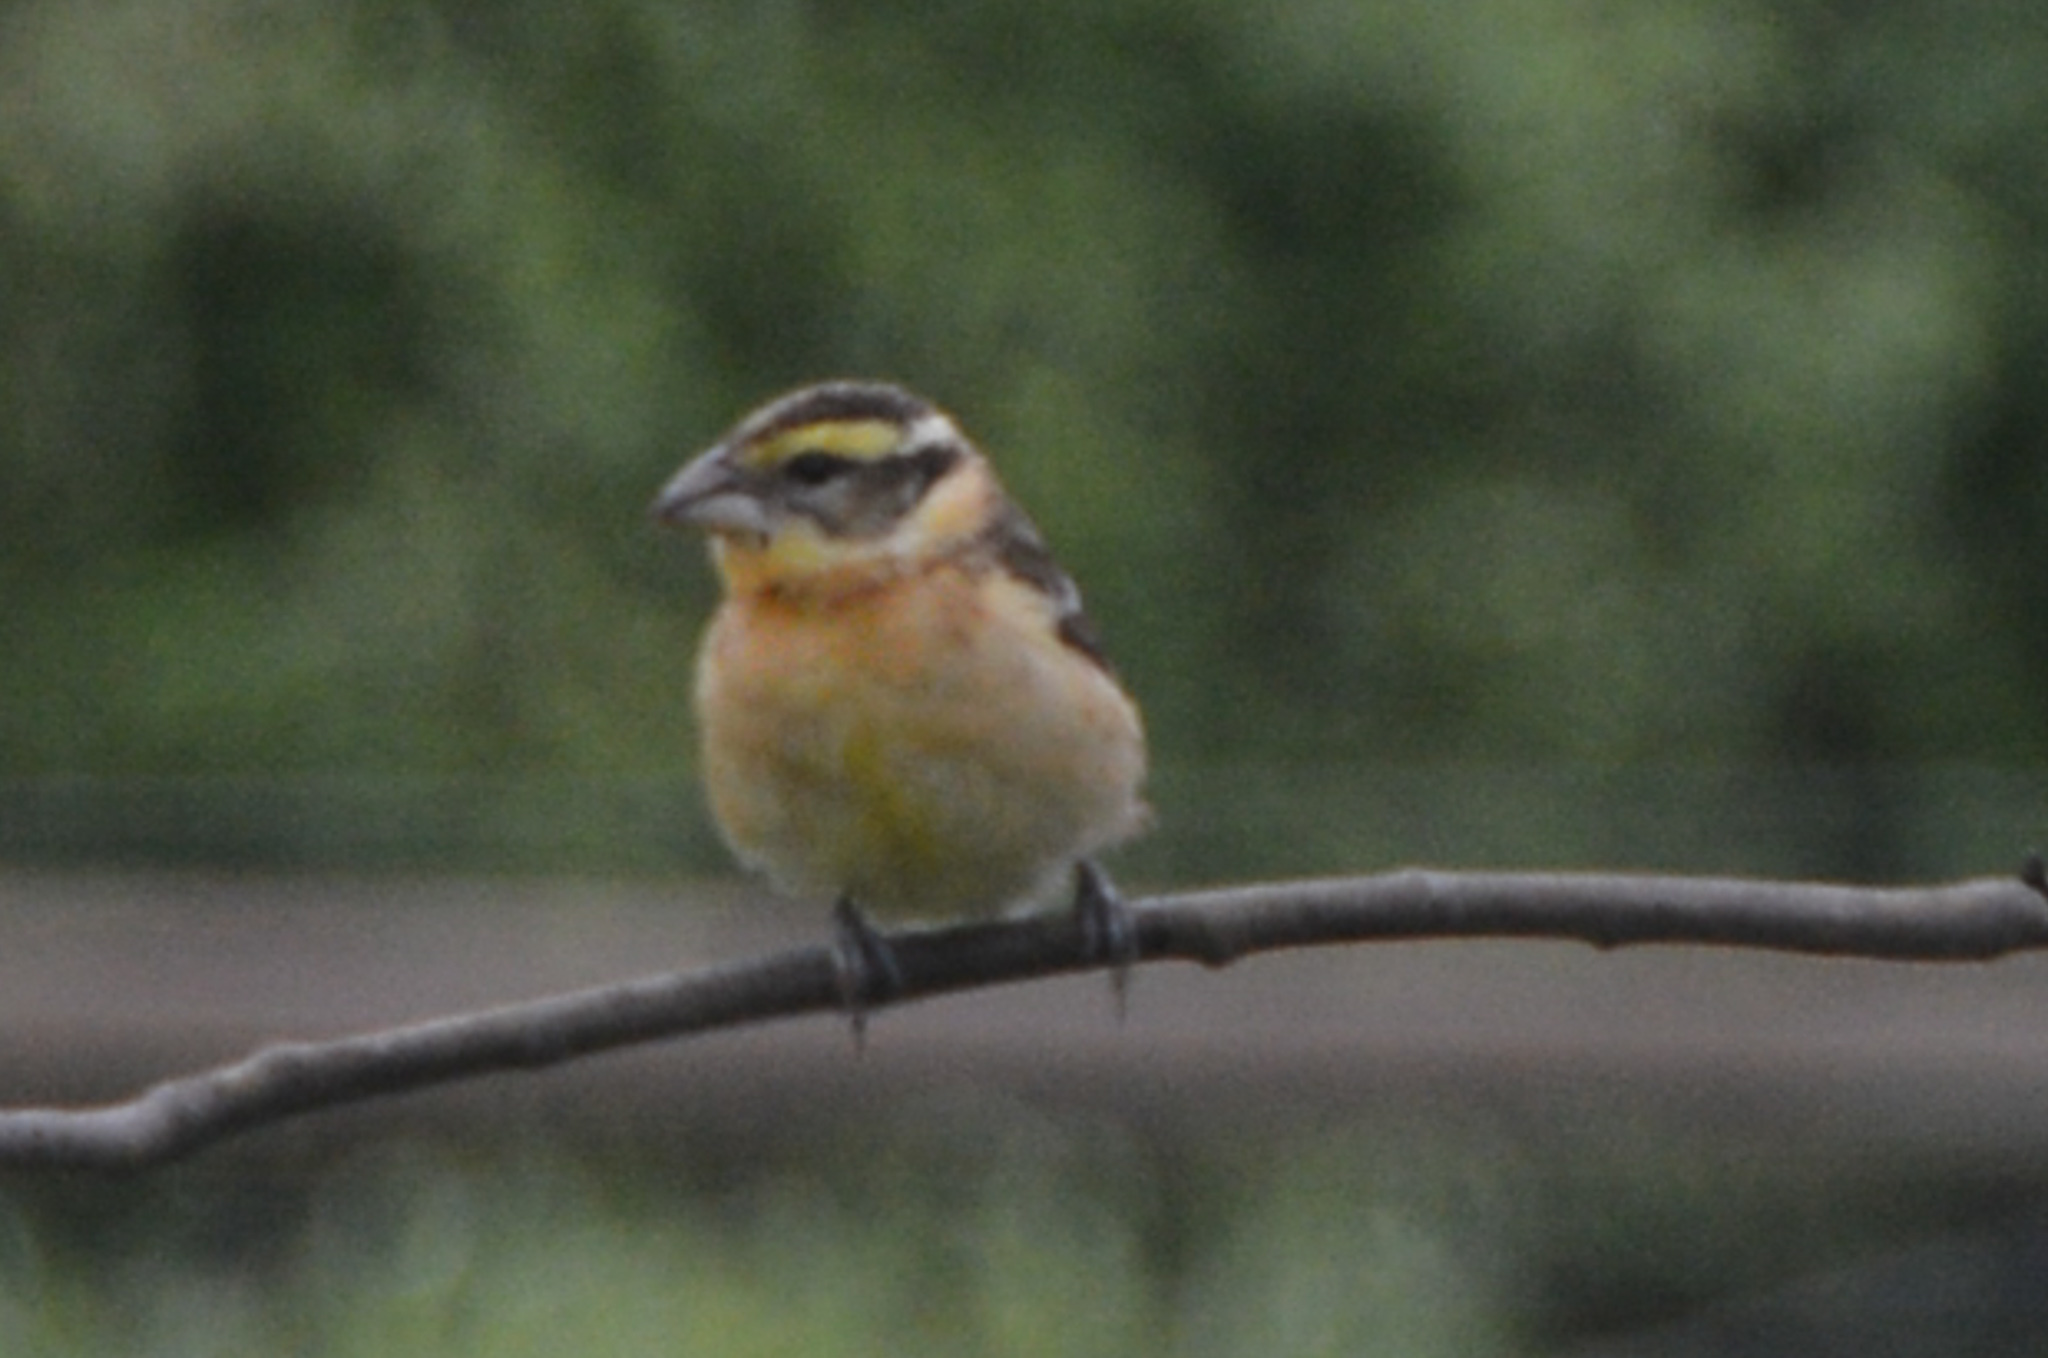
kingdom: Animalia
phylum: Chordata
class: Aves
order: Passeriformes
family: Cardinalidae
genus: Pheucticus
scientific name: Pheucticus melanocephalus
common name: Black-headed grosbeak
